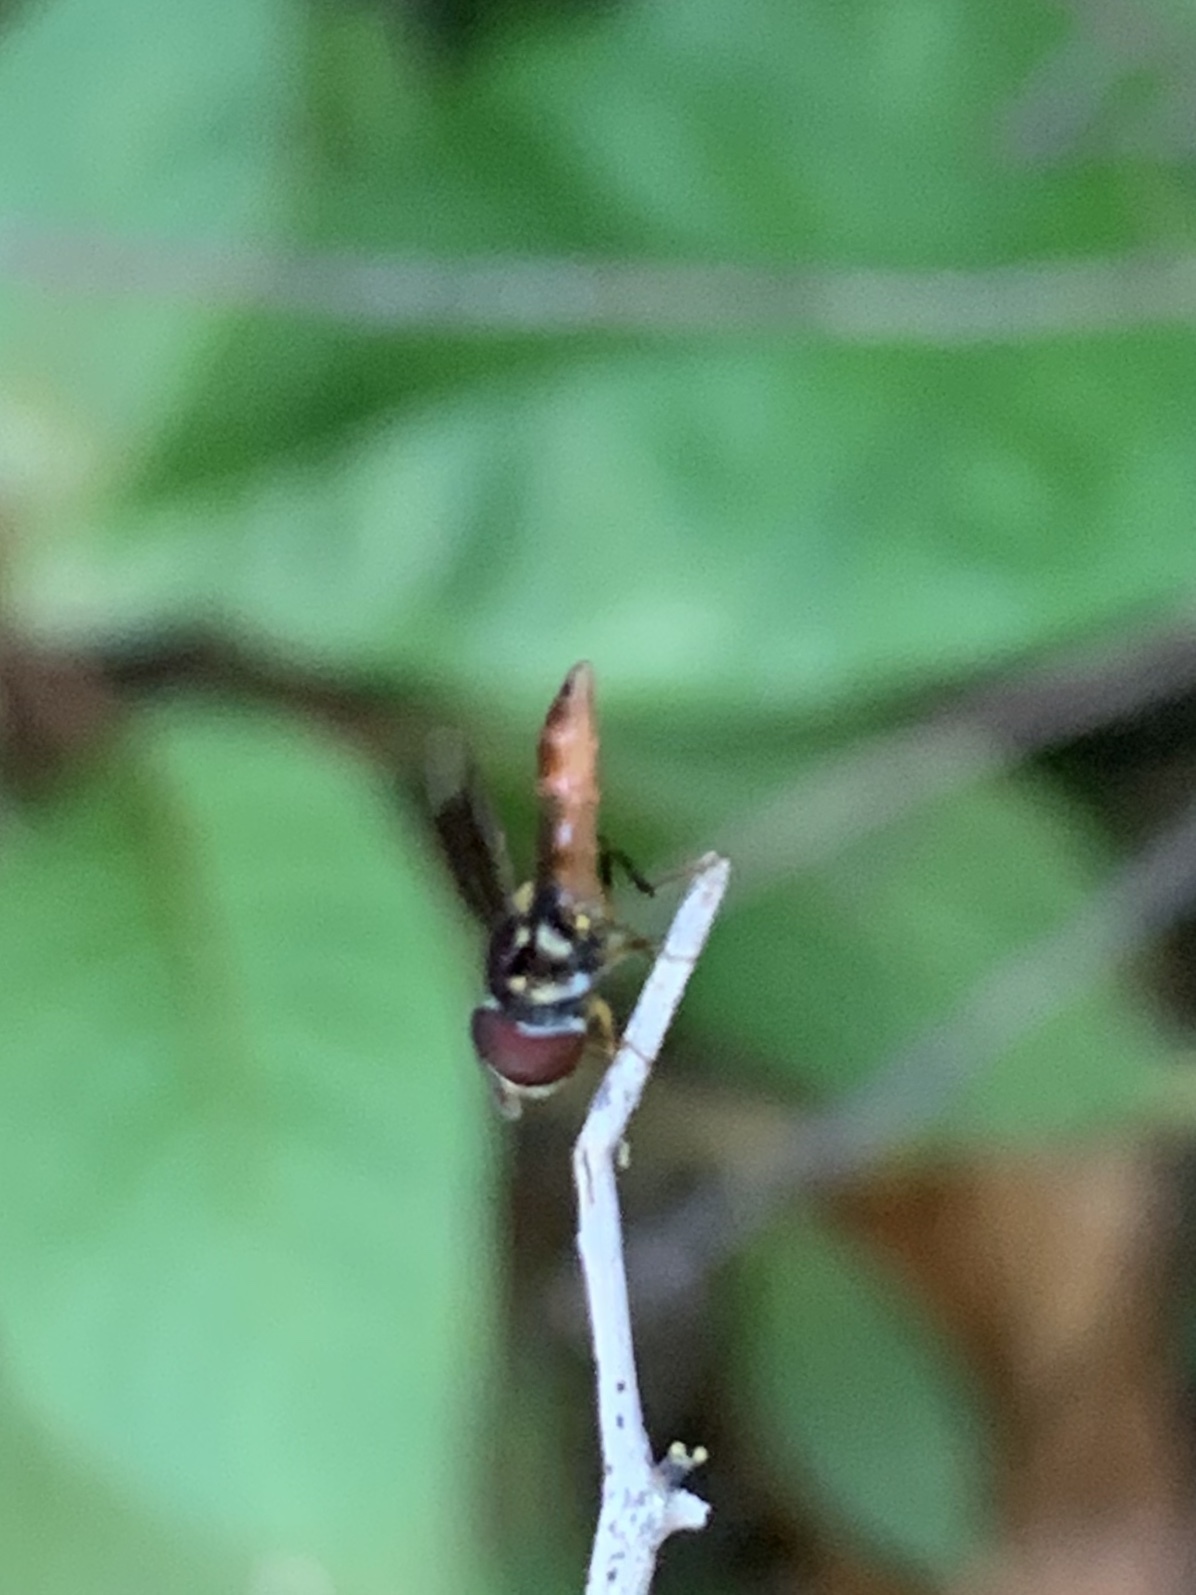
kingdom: Animalia
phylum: Arthropoda
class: Insecta
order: Diptera
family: Syrphidae
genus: Ocyptamus
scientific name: Ocyptamus antiphates
